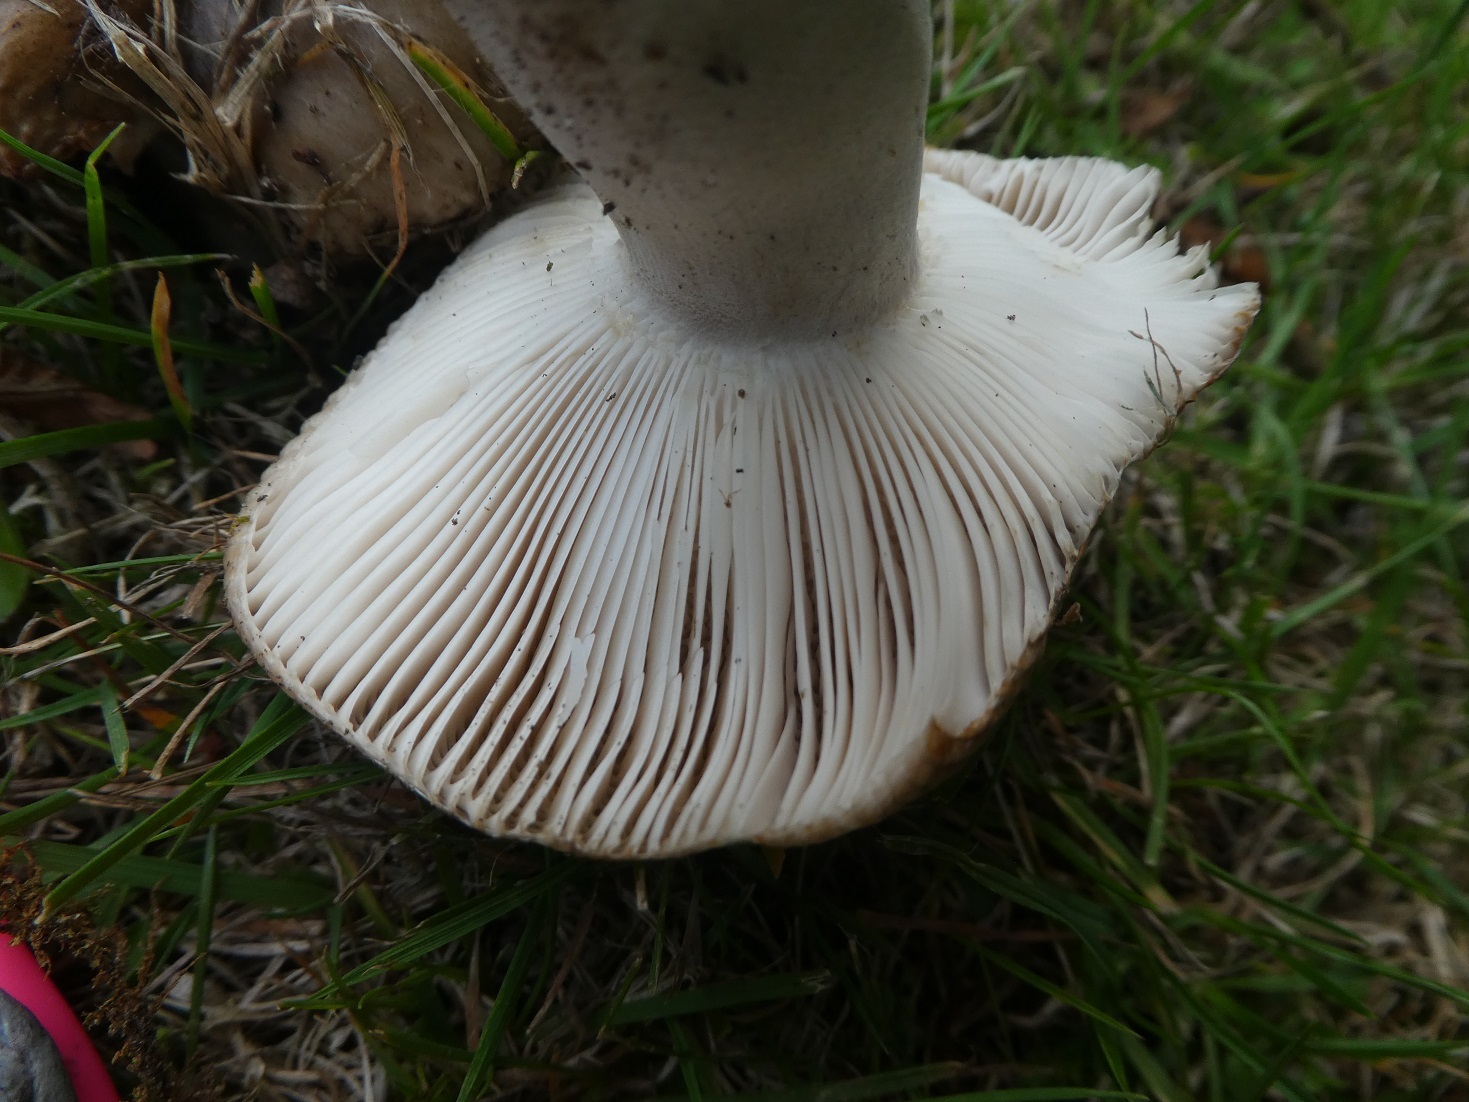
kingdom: Fungi
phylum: Basidiomycota
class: Agaricomycetes
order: Russulales
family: Russulaceae
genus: Russula
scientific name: Russula amoenolens
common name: Camembert brittlegill
